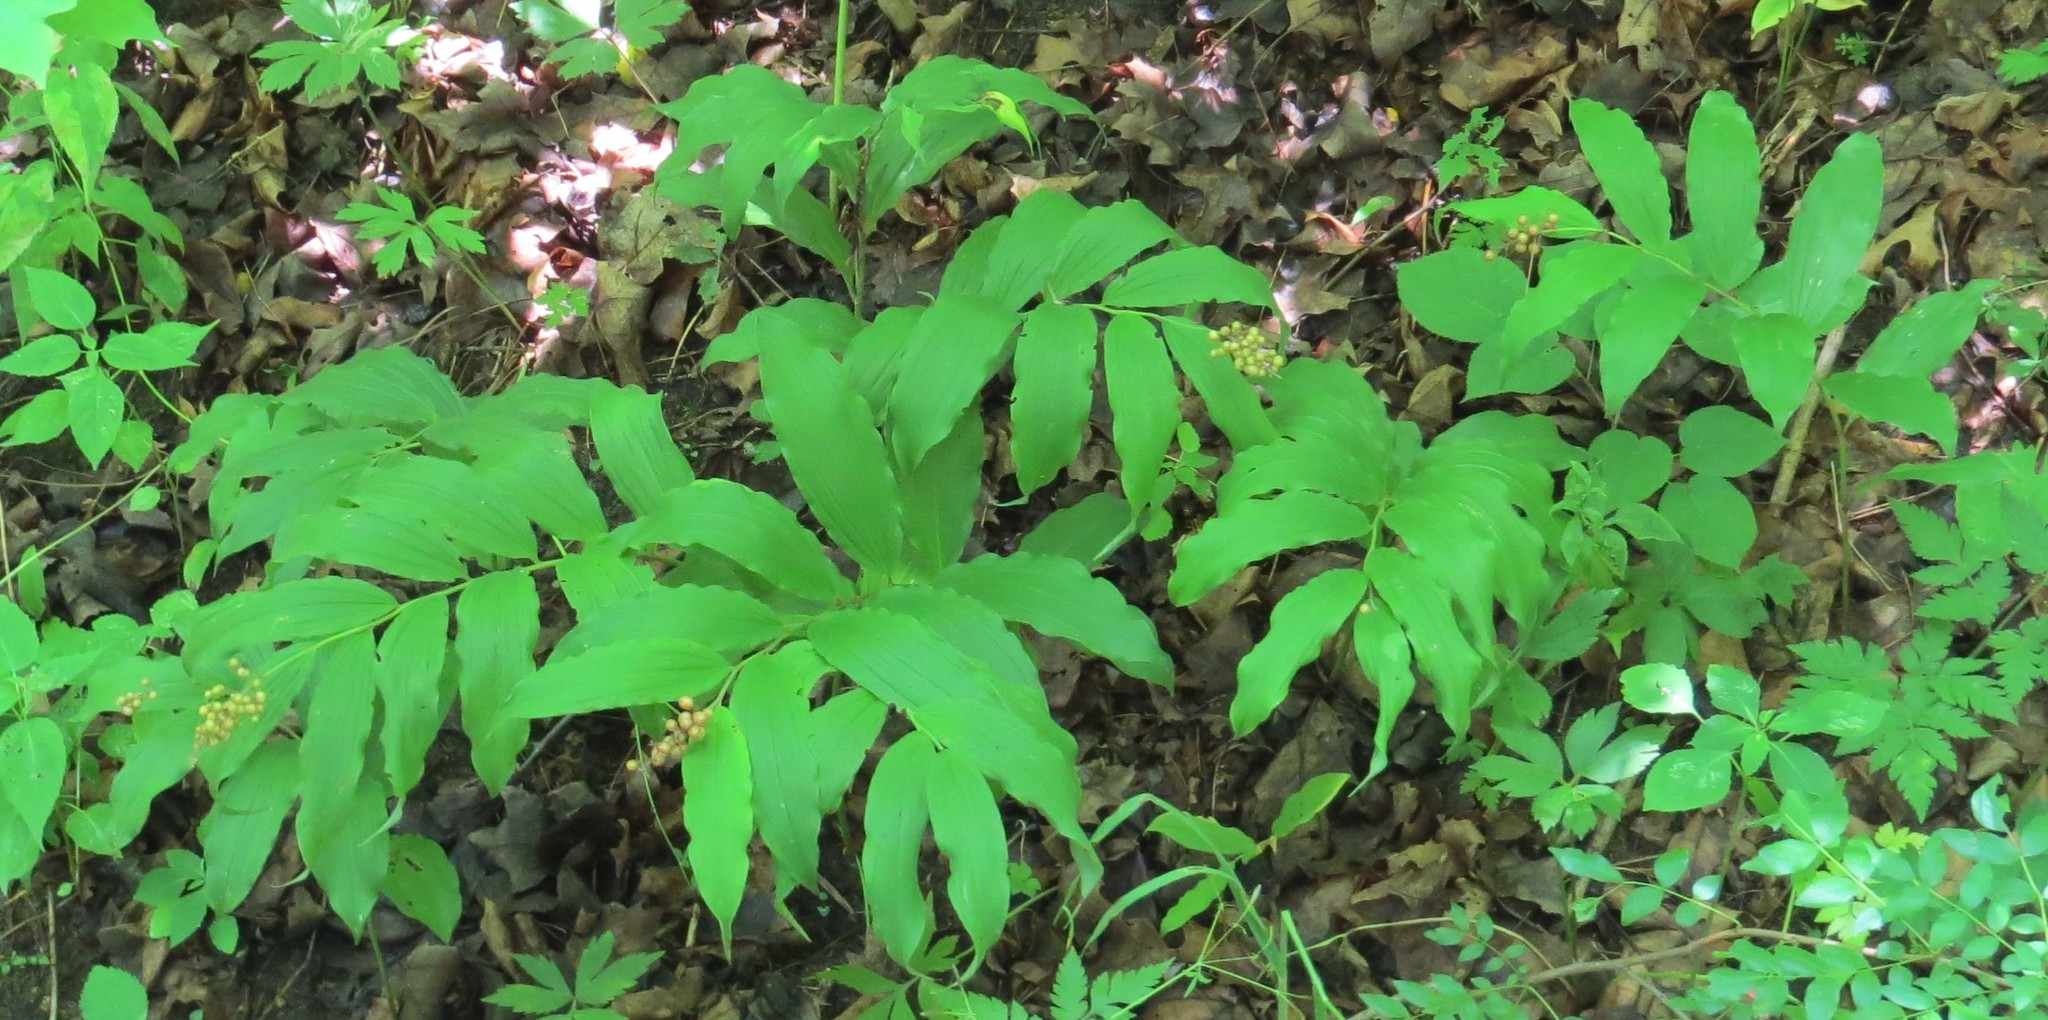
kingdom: Plantae
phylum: Tracheophyta
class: Liliopsida
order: Asparagales
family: Asparagaceae
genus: Maianthemum
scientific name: Maianthemum racemosum
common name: False spikenard
